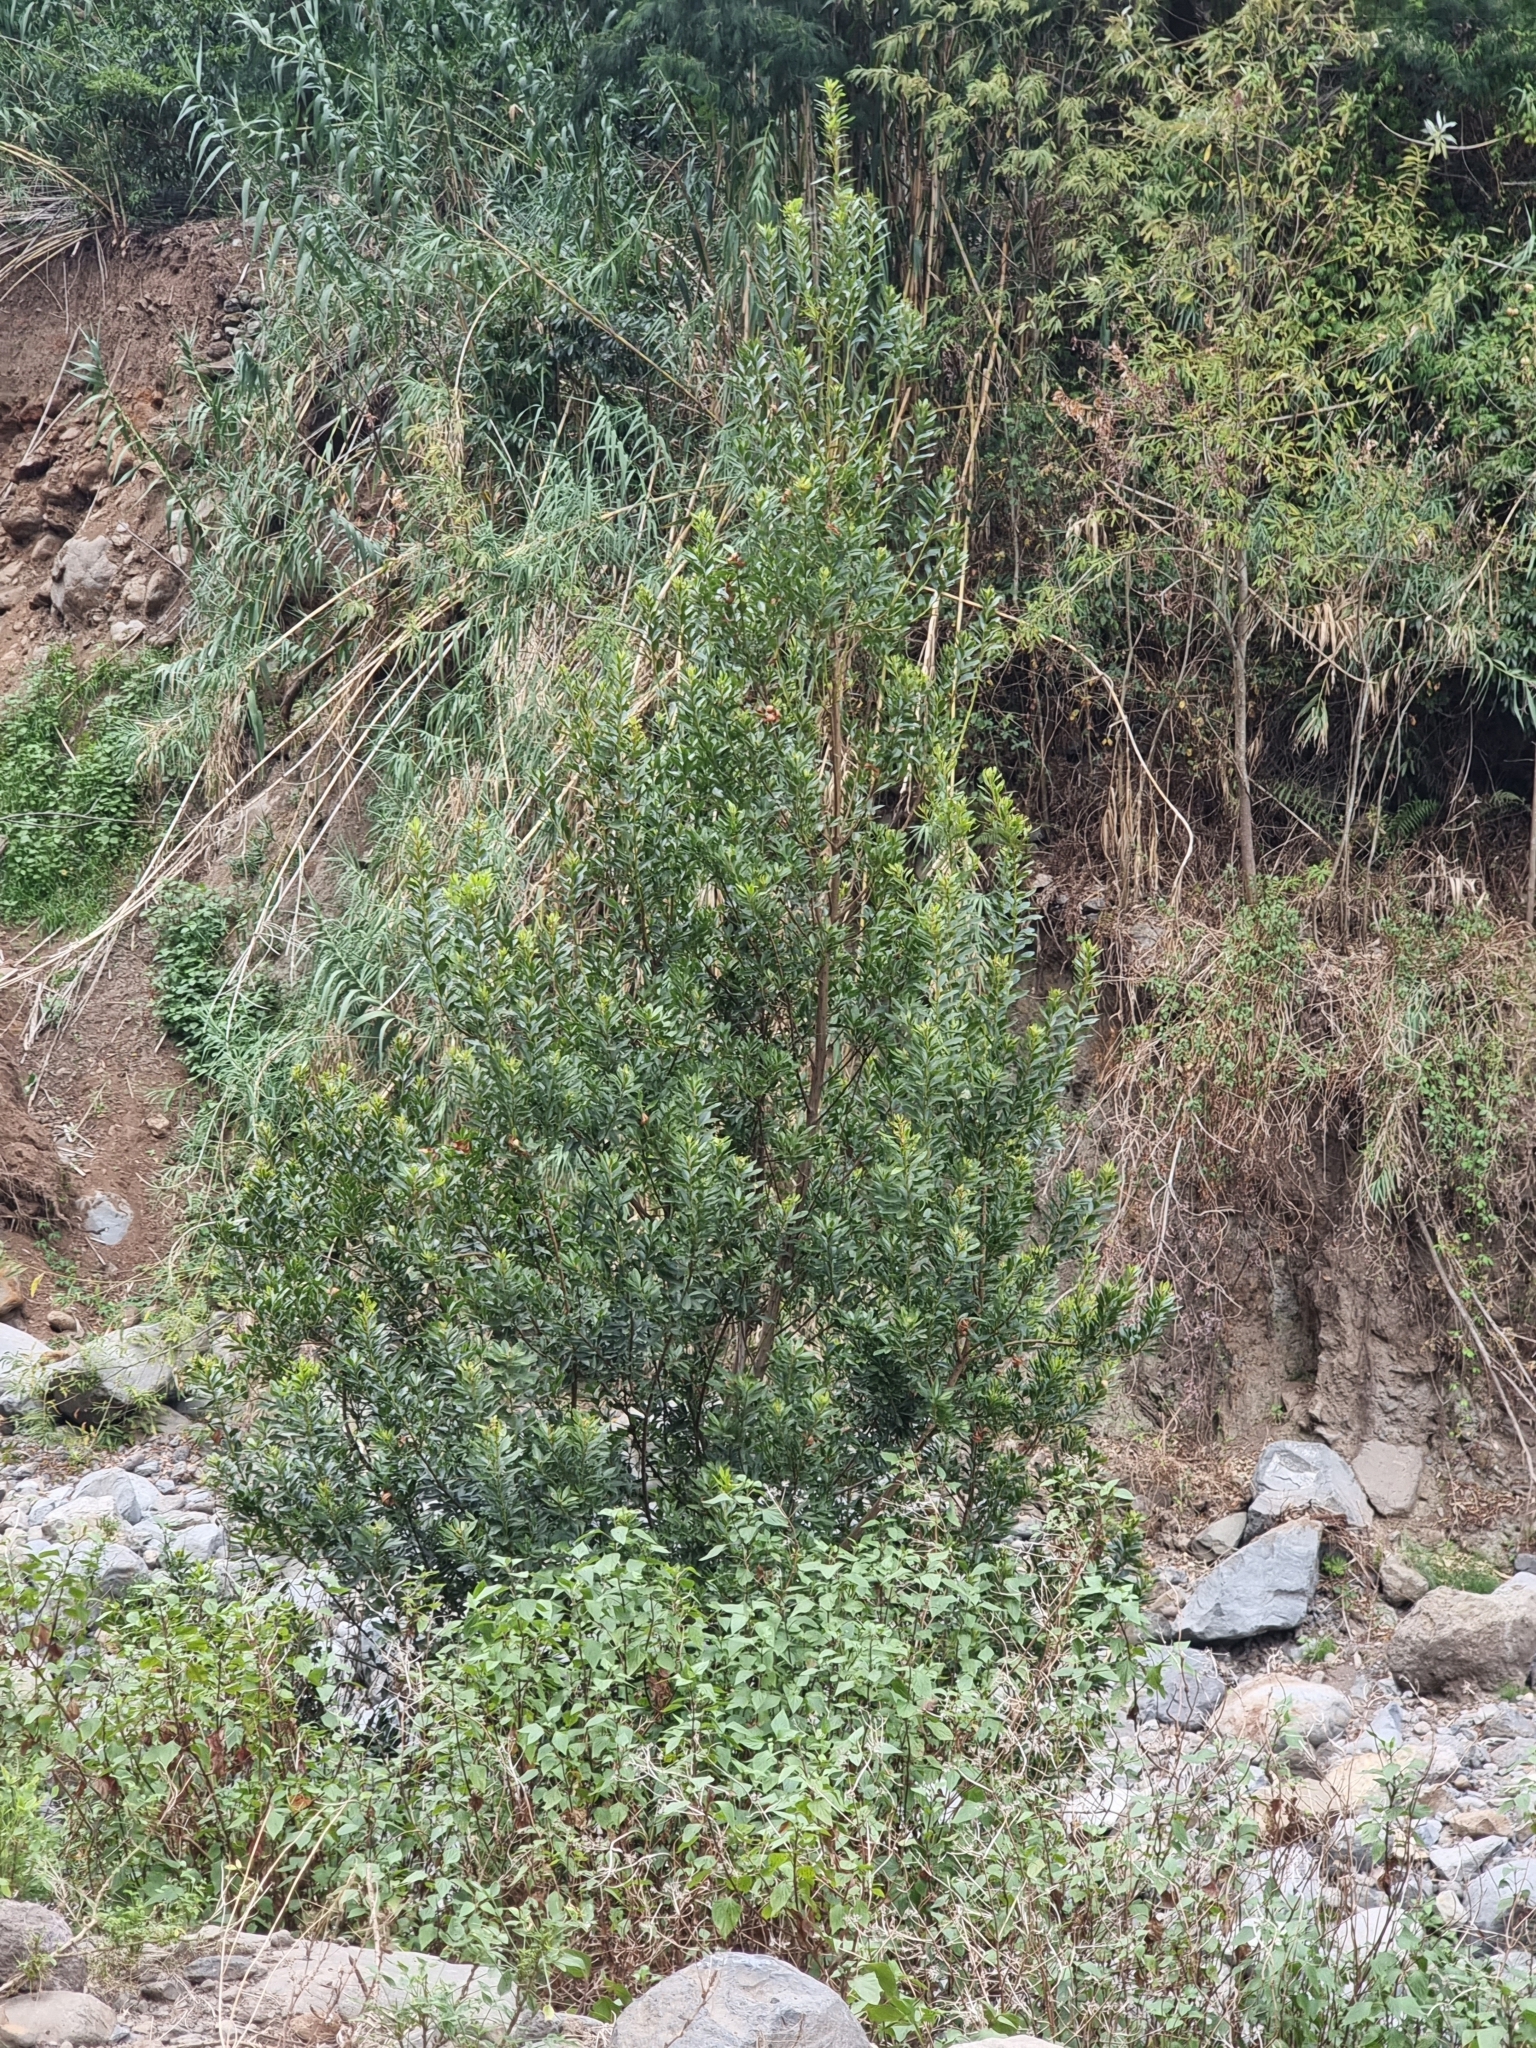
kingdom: Plantae
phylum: Tracheophyta
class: Magnoliopsida
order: Fagales
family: Myricaceae
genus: Morella
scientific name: Morella faya
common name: Firetree
